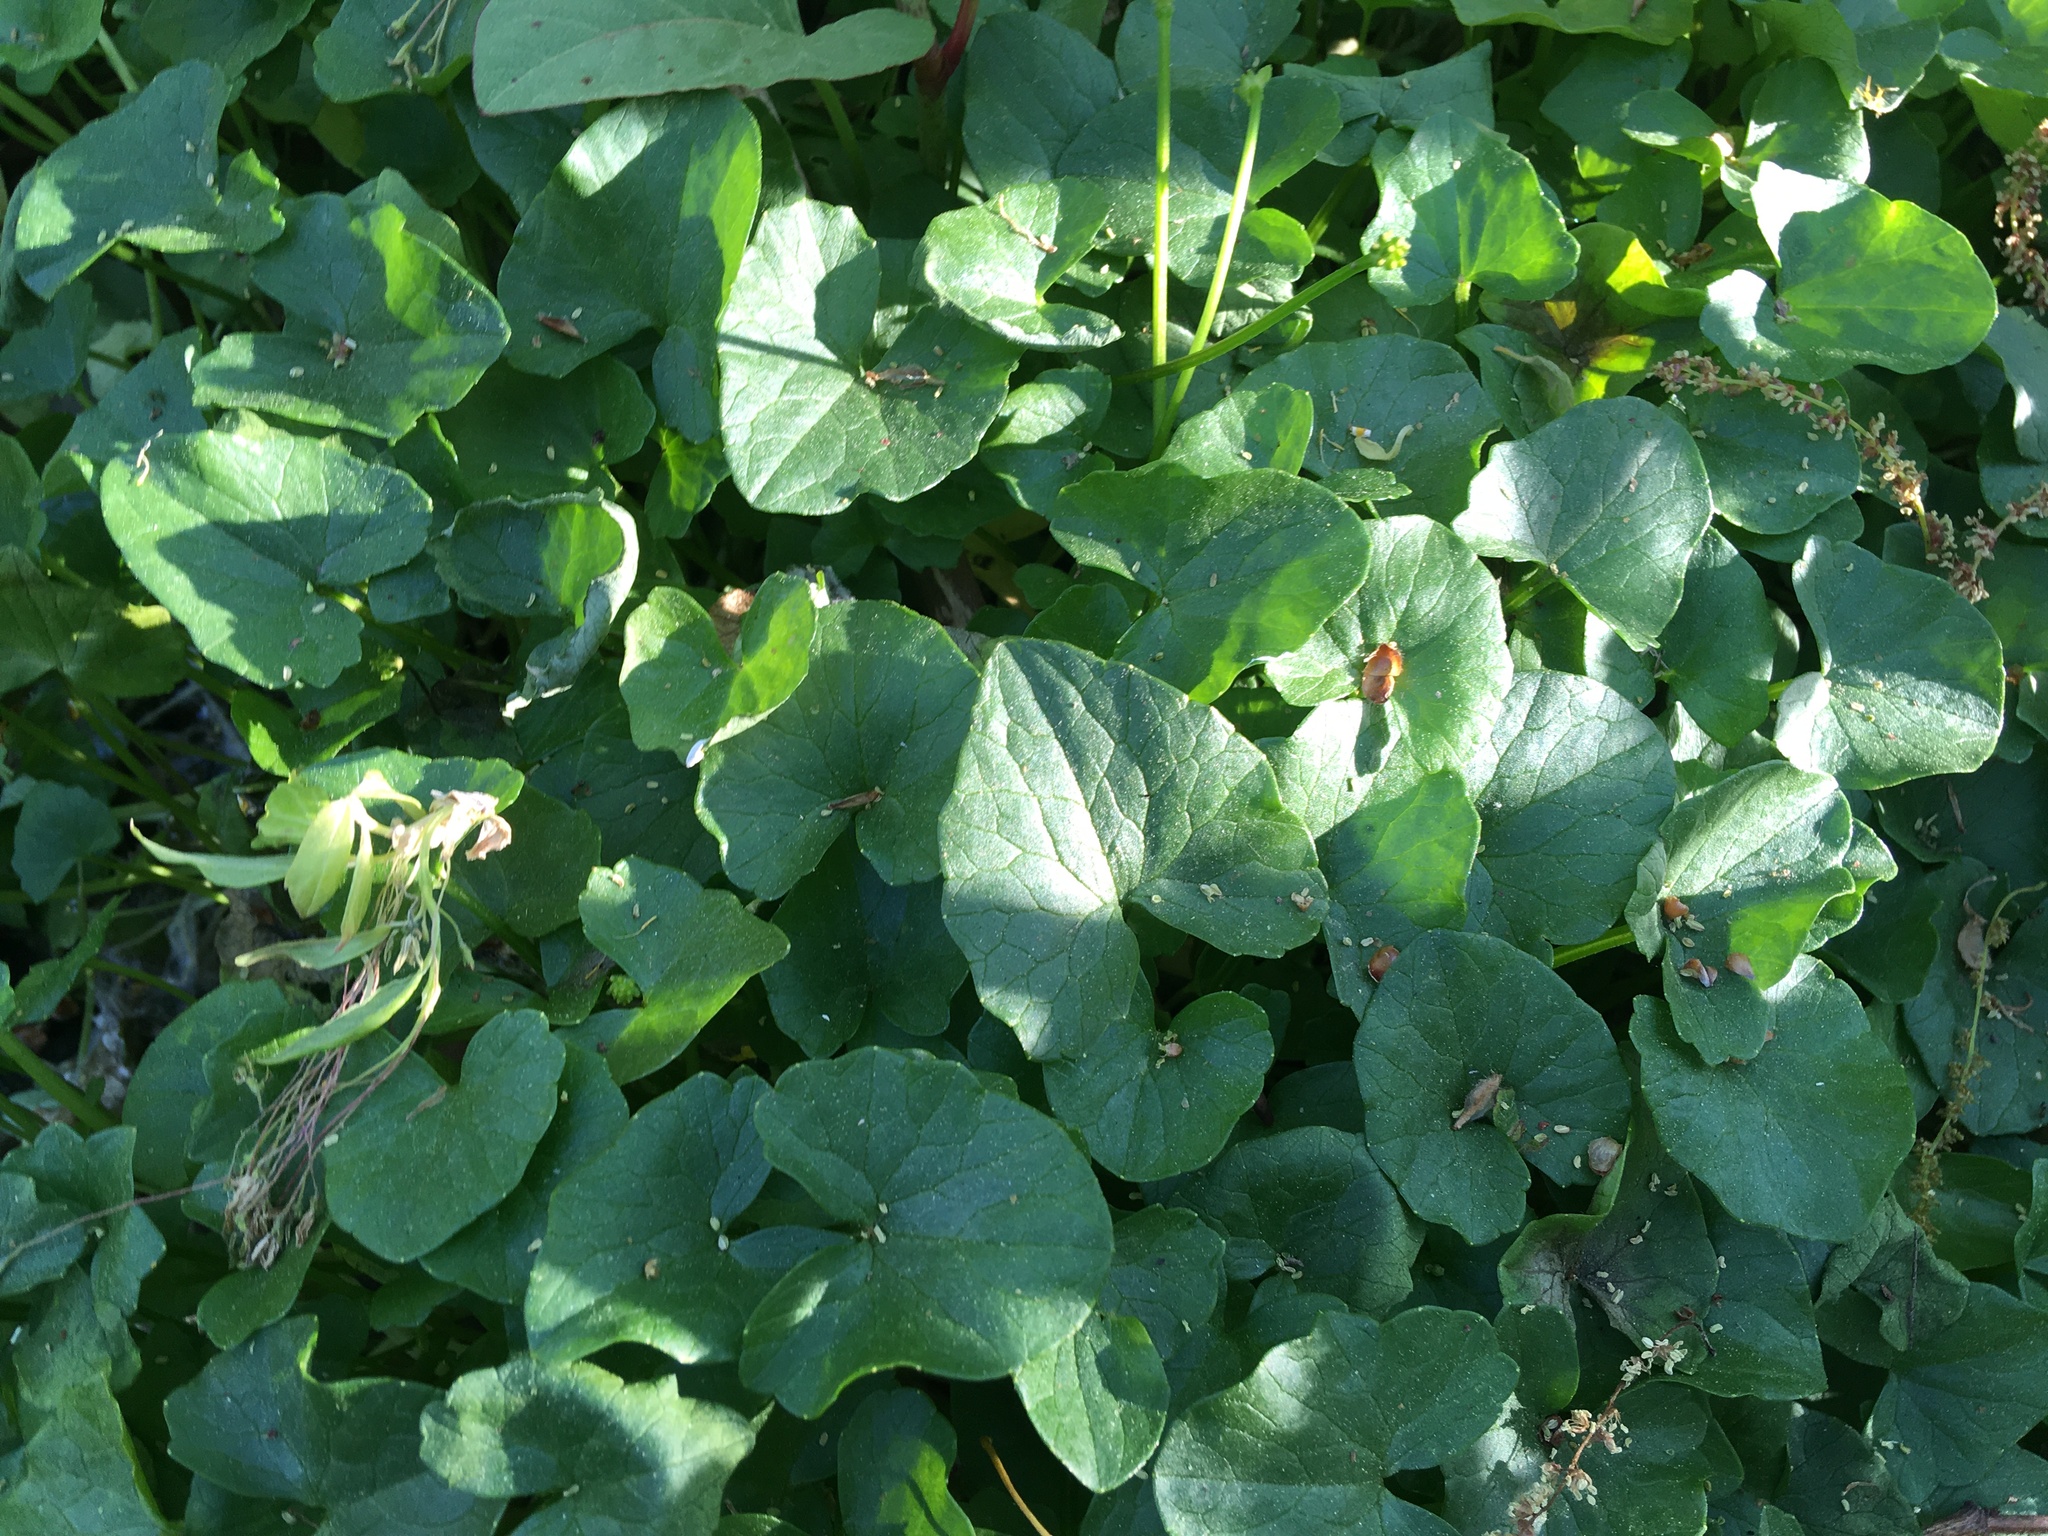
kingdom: Plantae
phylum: Tracheophyta
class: Magnoliopsida
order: Ranunculales
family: Ranunculaceae
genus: Ficaria
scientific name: Ficaria verna
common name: Lesser celandine
